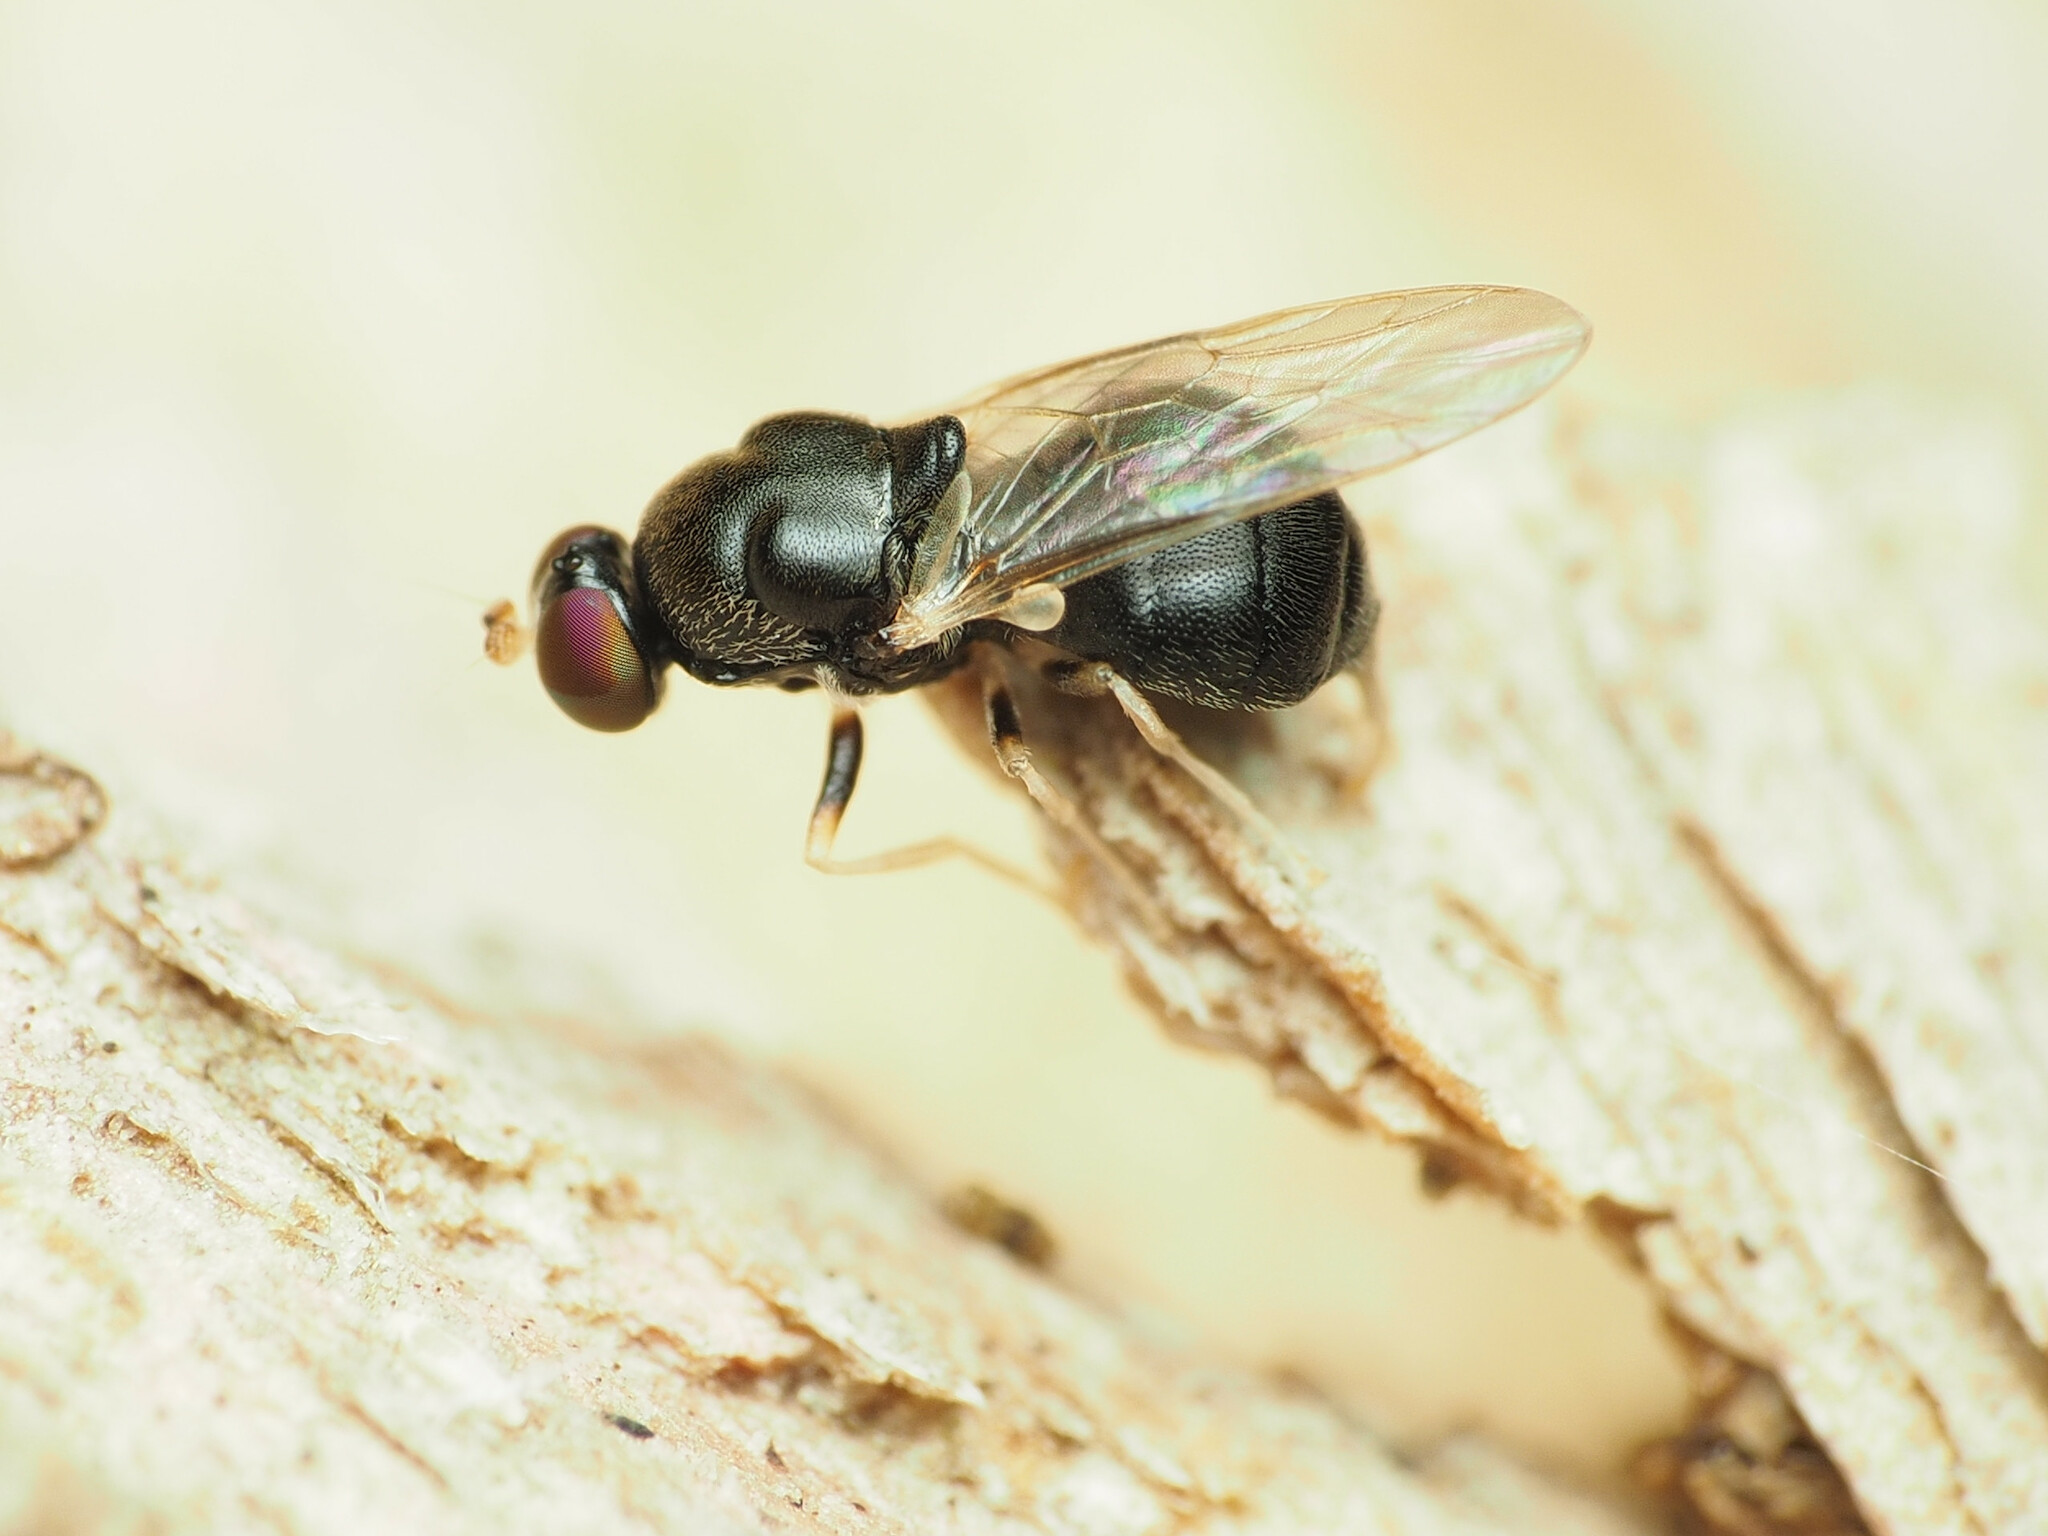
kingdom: Animalia
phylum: Arthropoda
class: Insecta
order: Diptera
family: Stratiomyidae
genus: Pachygaster
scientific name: Pachygaster pulchra
